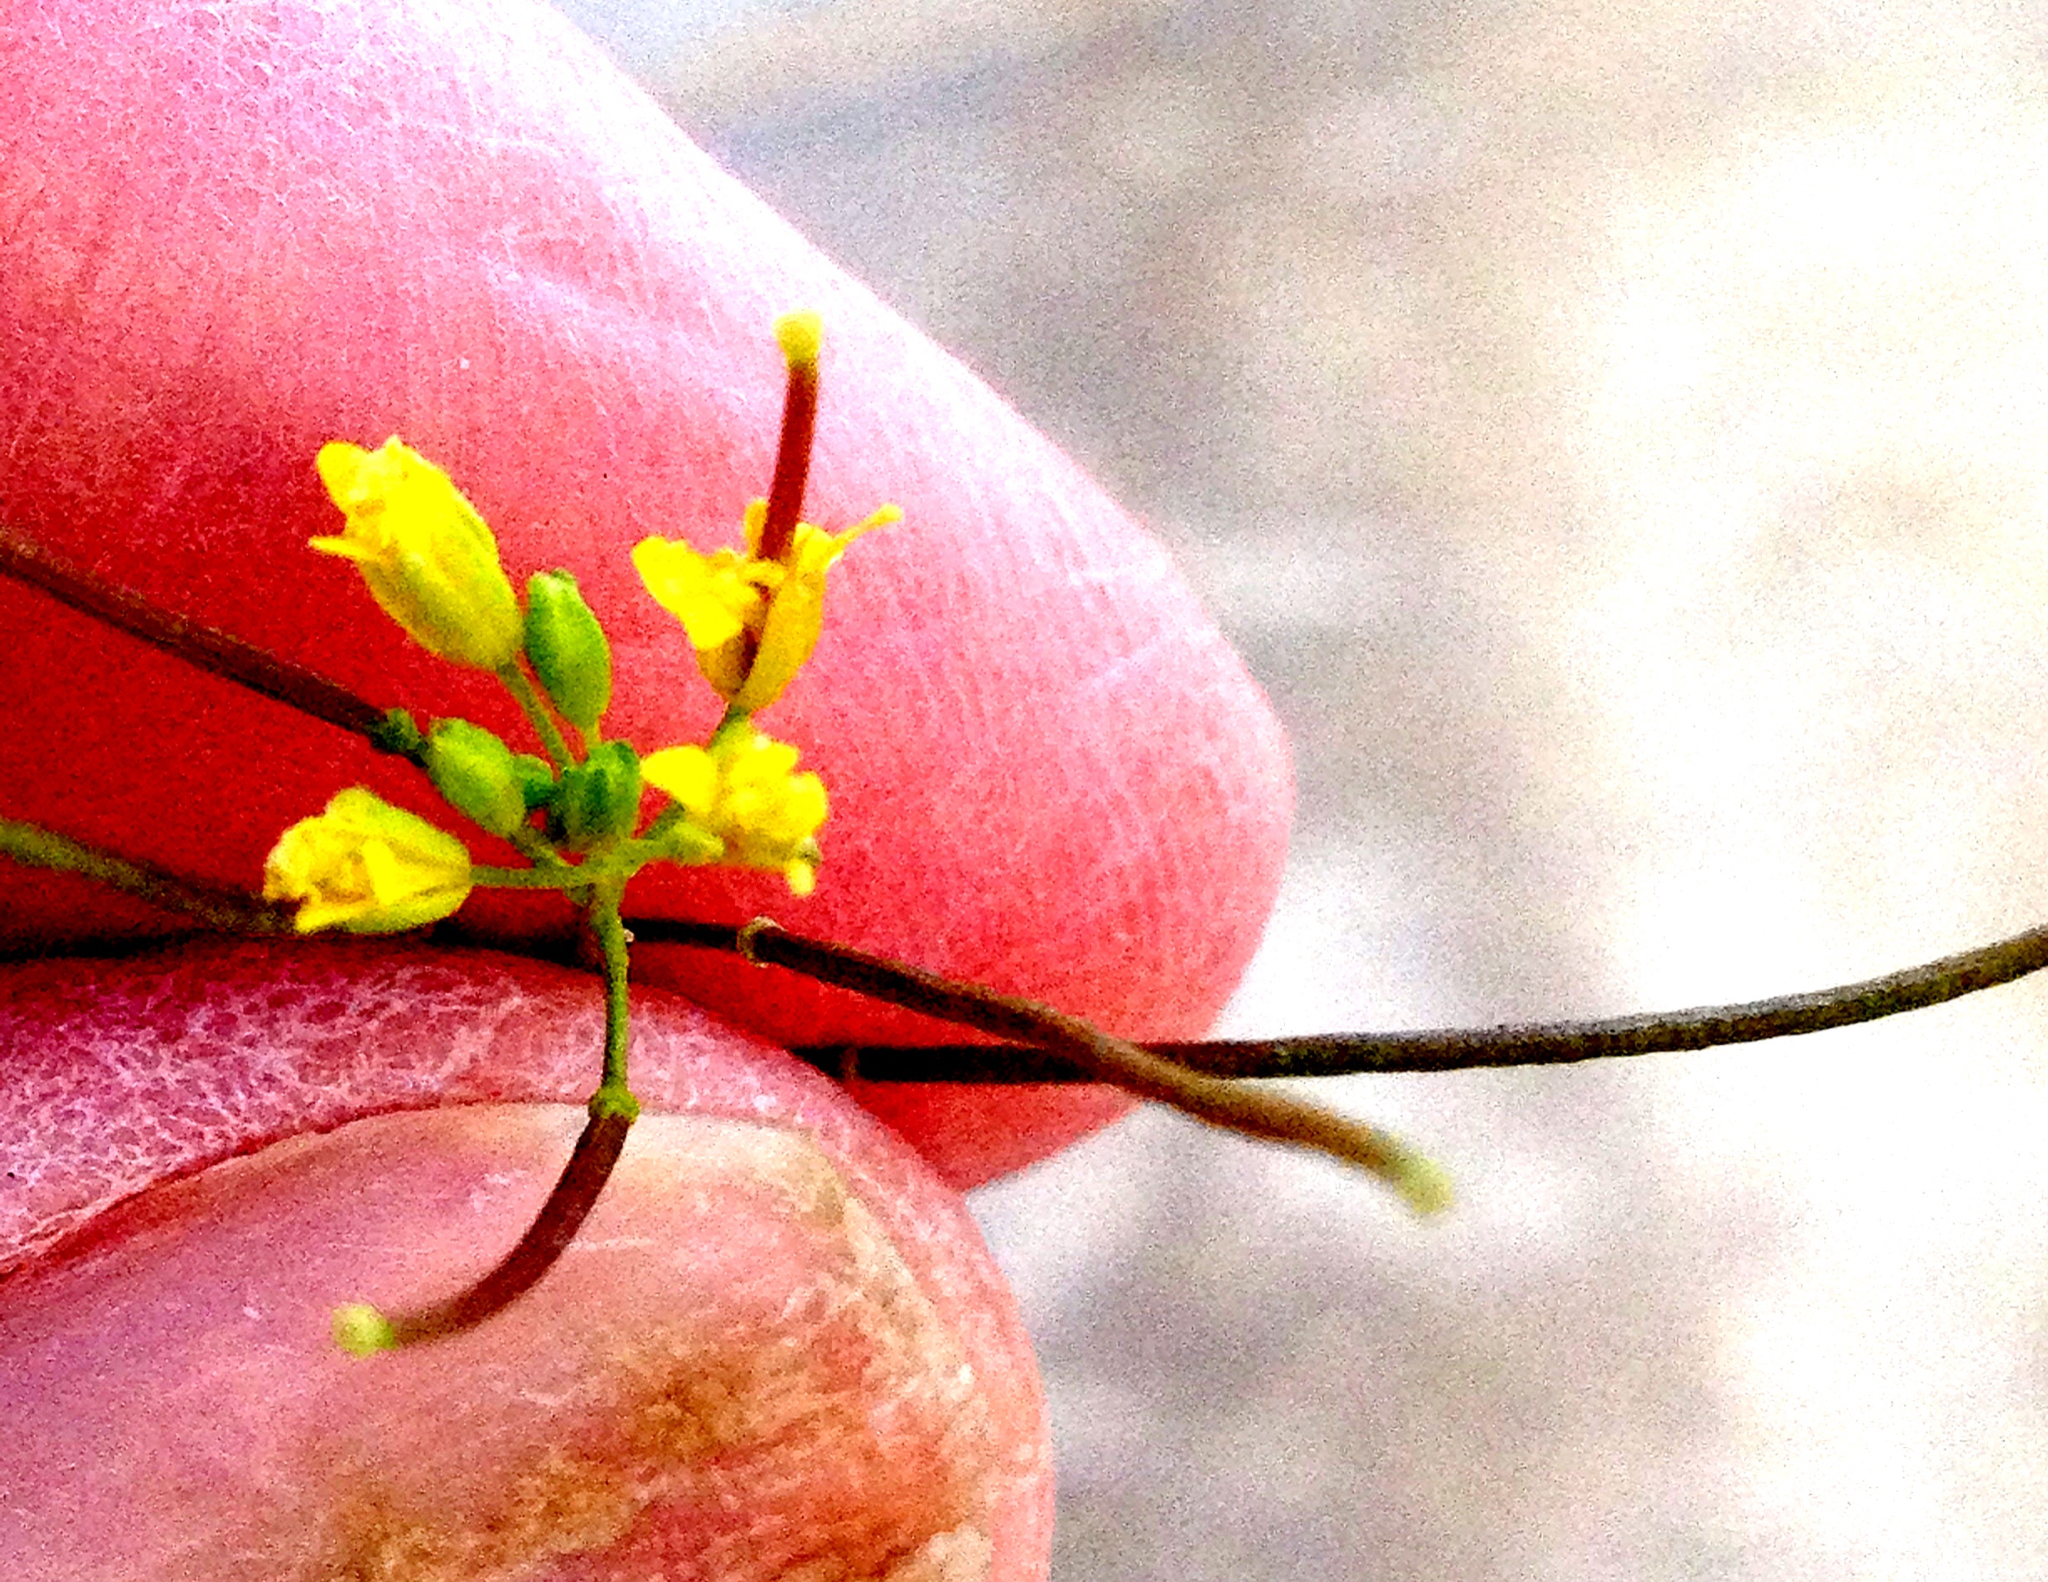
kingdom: Plantae
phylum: Tracheophyta
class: Magnoliopsida
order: Brassicales
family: Brassicaceae
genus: Sisymbrium
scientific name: Sisymbrium irio
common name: London rocket
